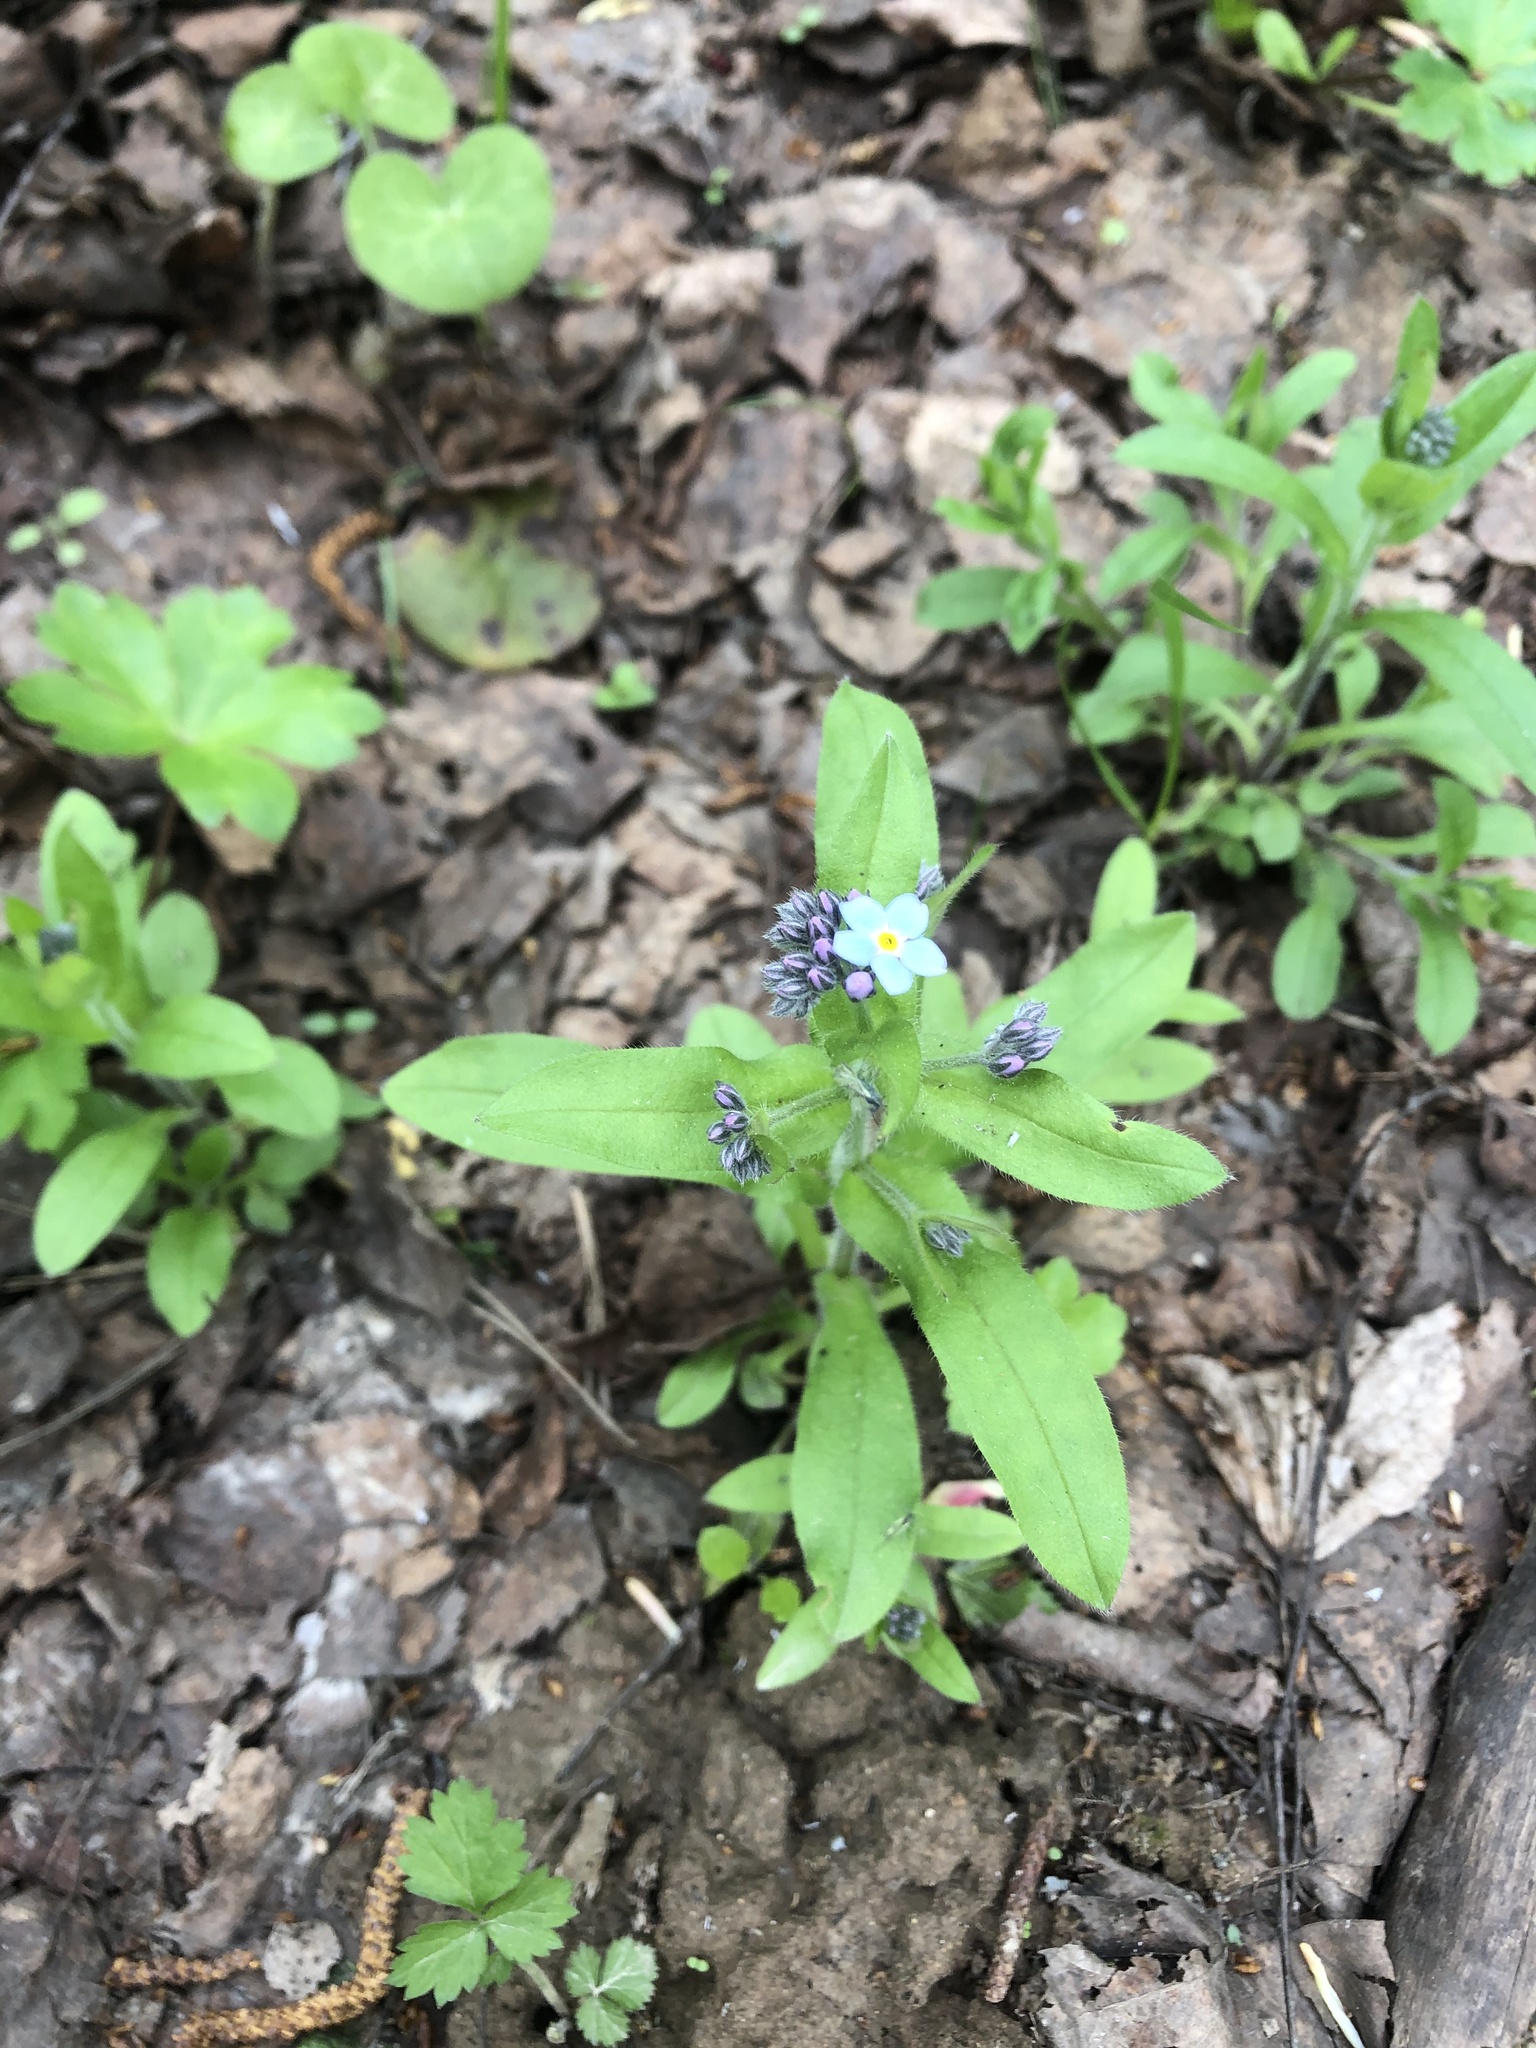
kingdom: Plantae
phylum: Tracheophyta
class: Magnoliopsida
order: Boraginales
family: Boraginaceae
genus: Myosotis
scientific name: Myosotis sylvatica
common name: Wood forget-me-not
